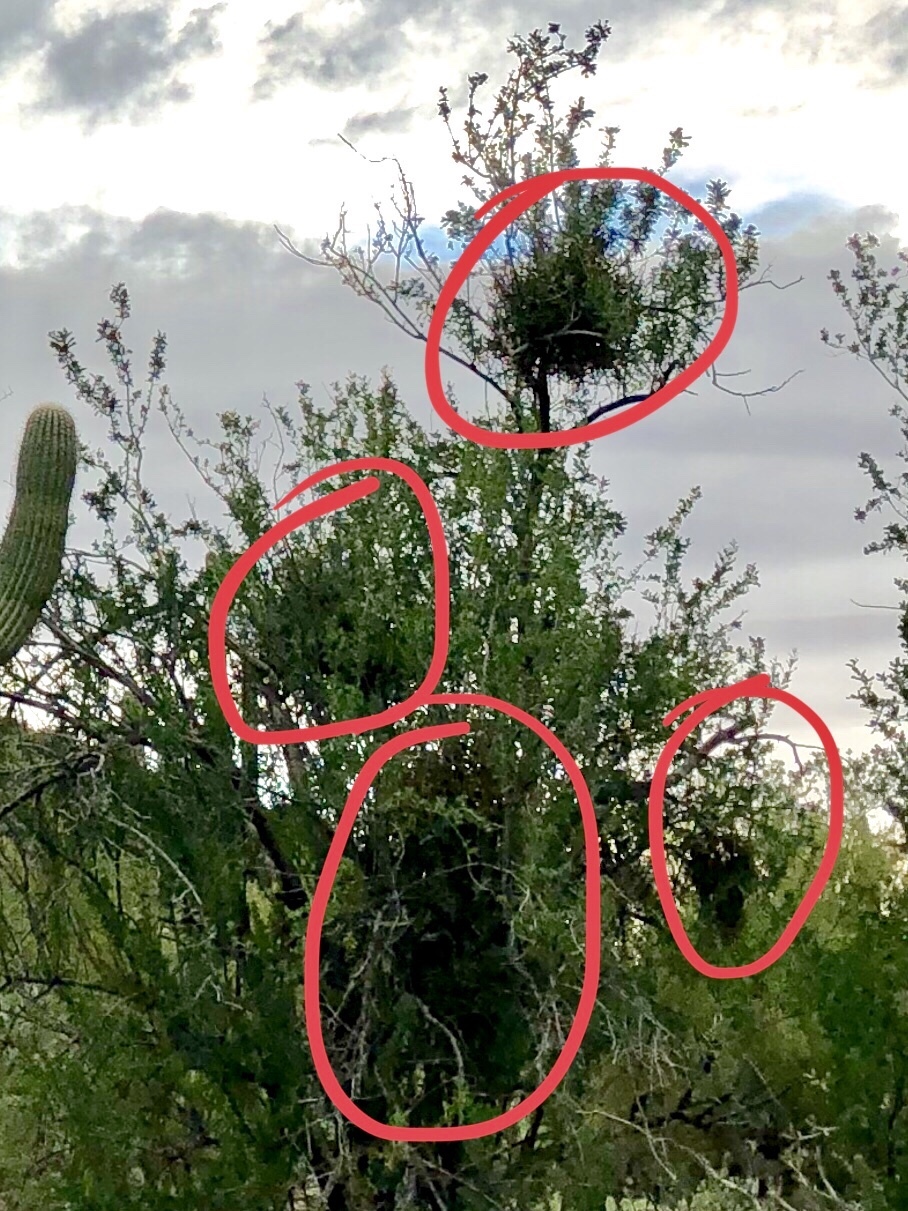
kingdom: Plantae
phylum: Tracheophyta
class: Magnoliopsida
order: Santalales
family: Viscaceae
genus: Phoradendron
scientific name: Phoradendron californicum
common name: Acacia mistletoe
